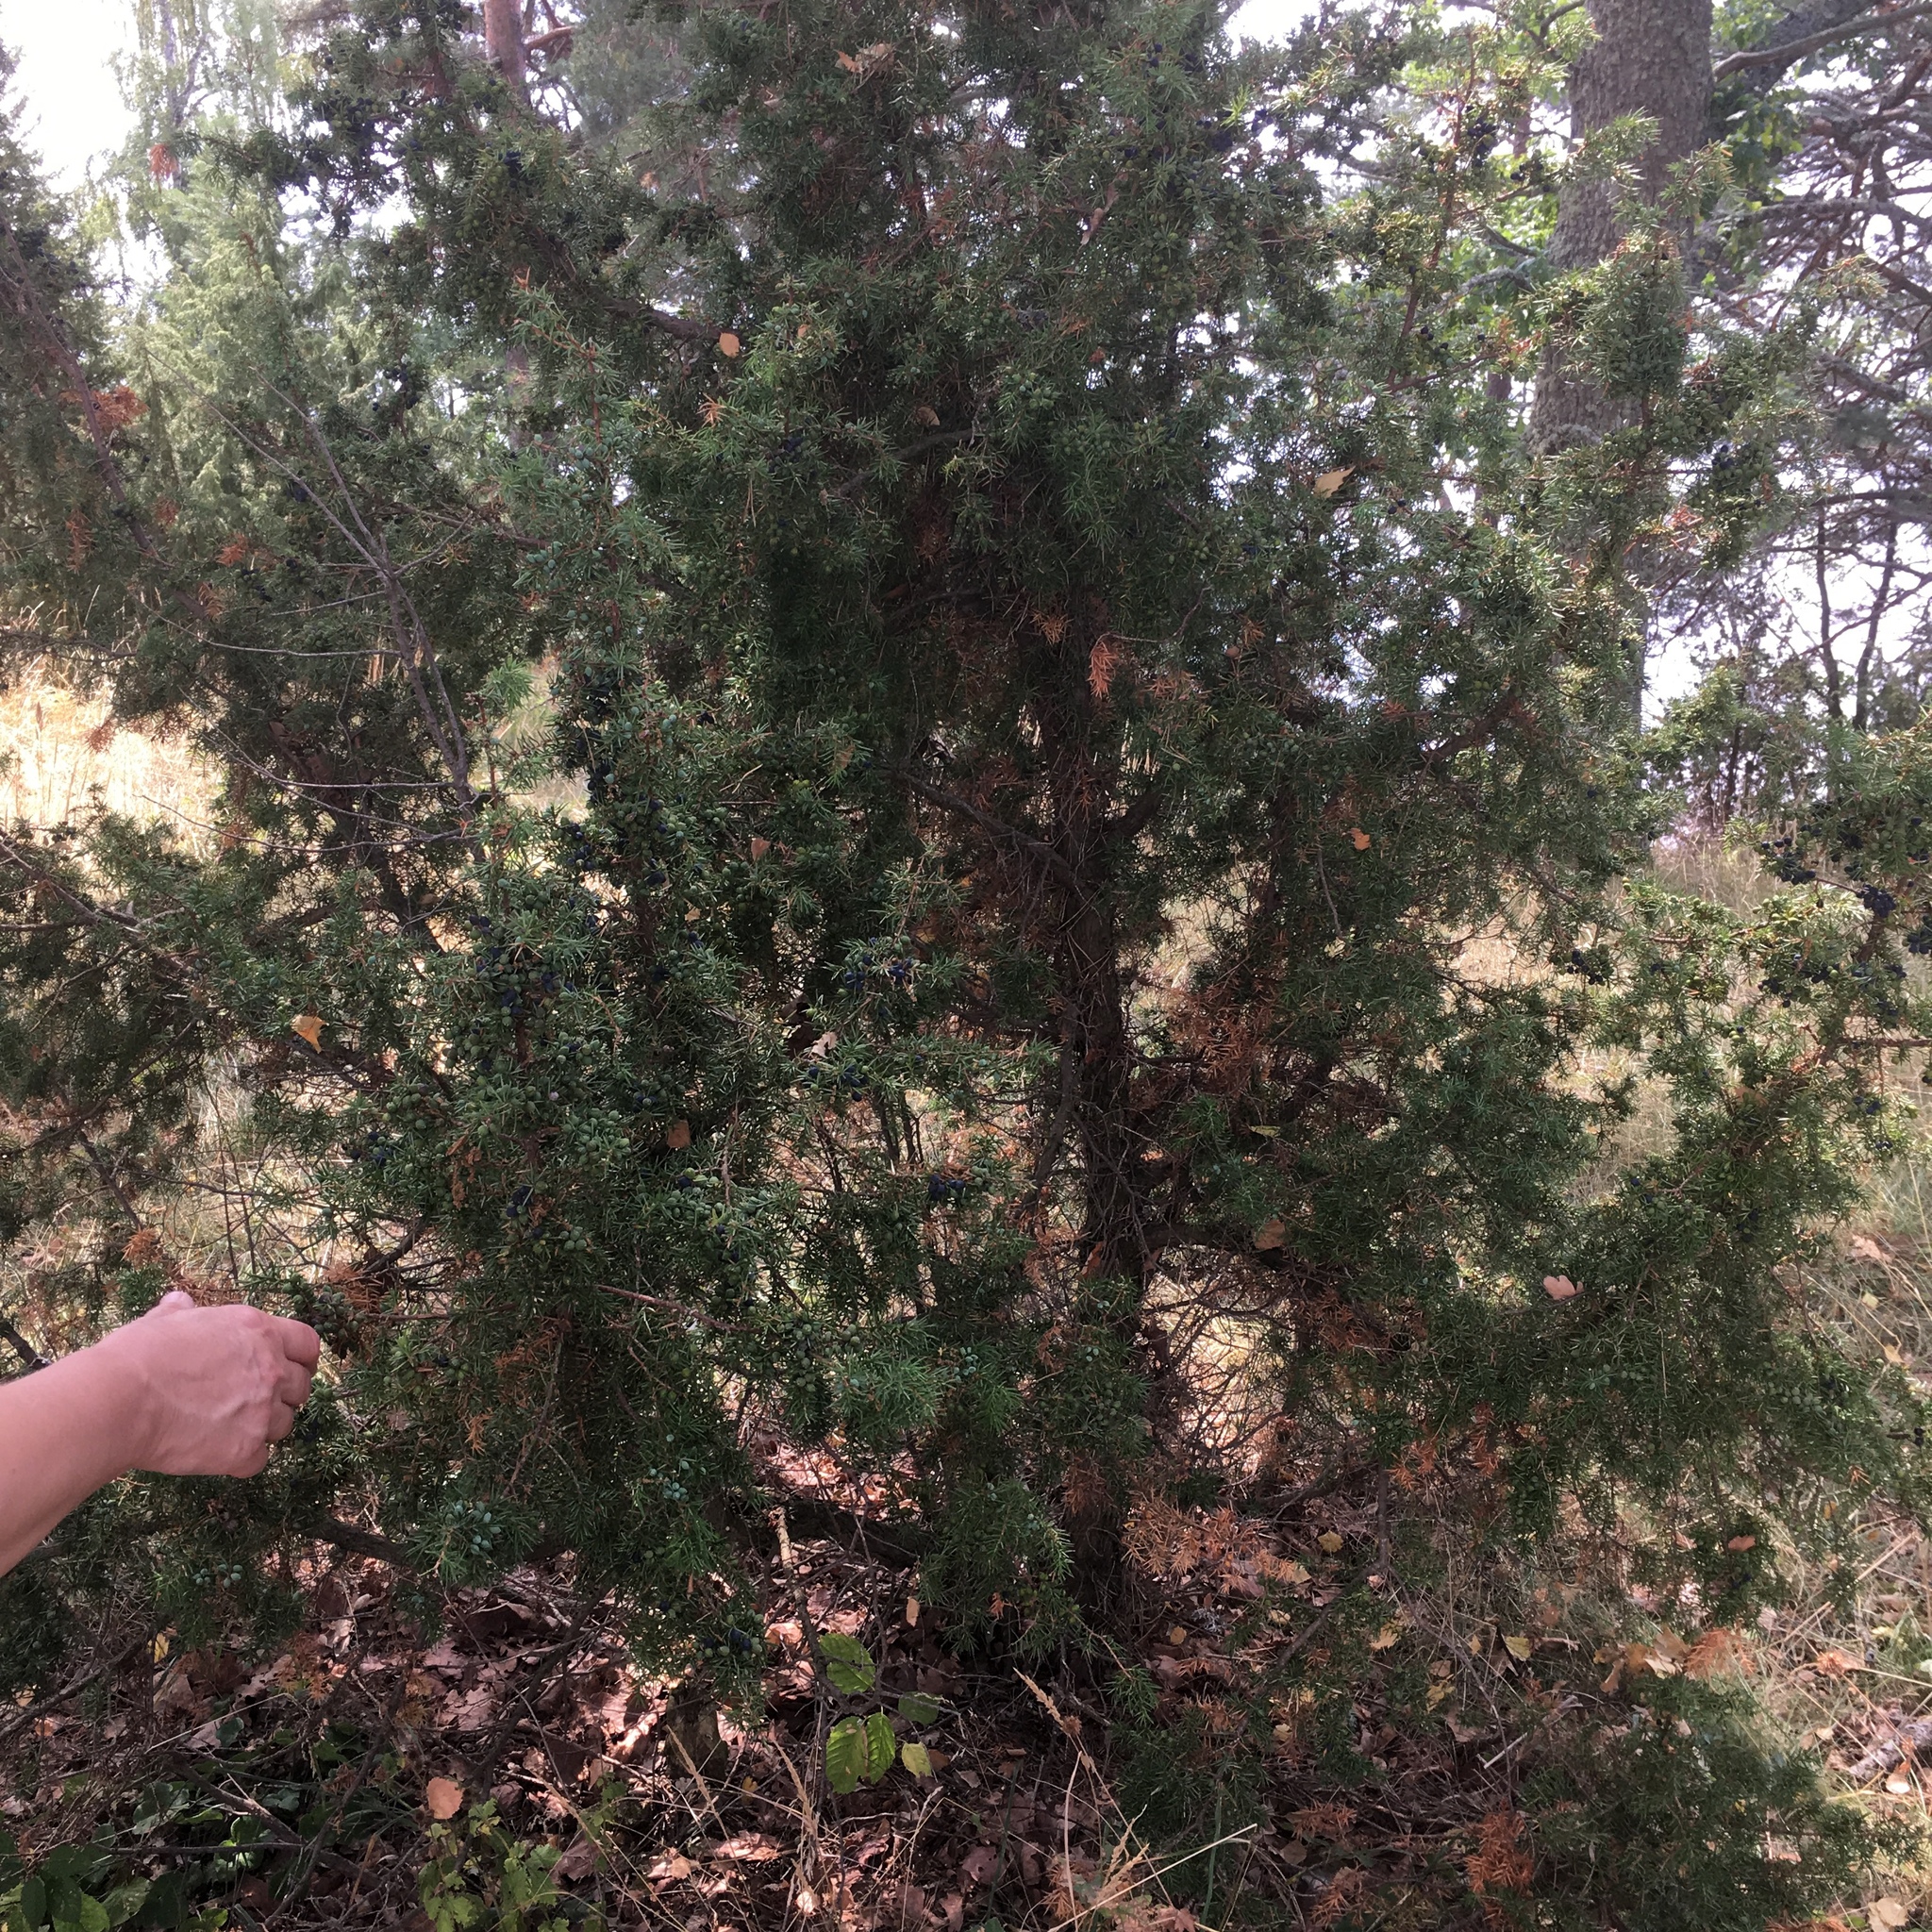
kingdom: Plantae
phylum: Tracheophyta
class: Pinopsida
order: Pinales
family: Cupressaceae
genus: Juniperus
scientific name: Juniperus communis
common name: Common juniper
